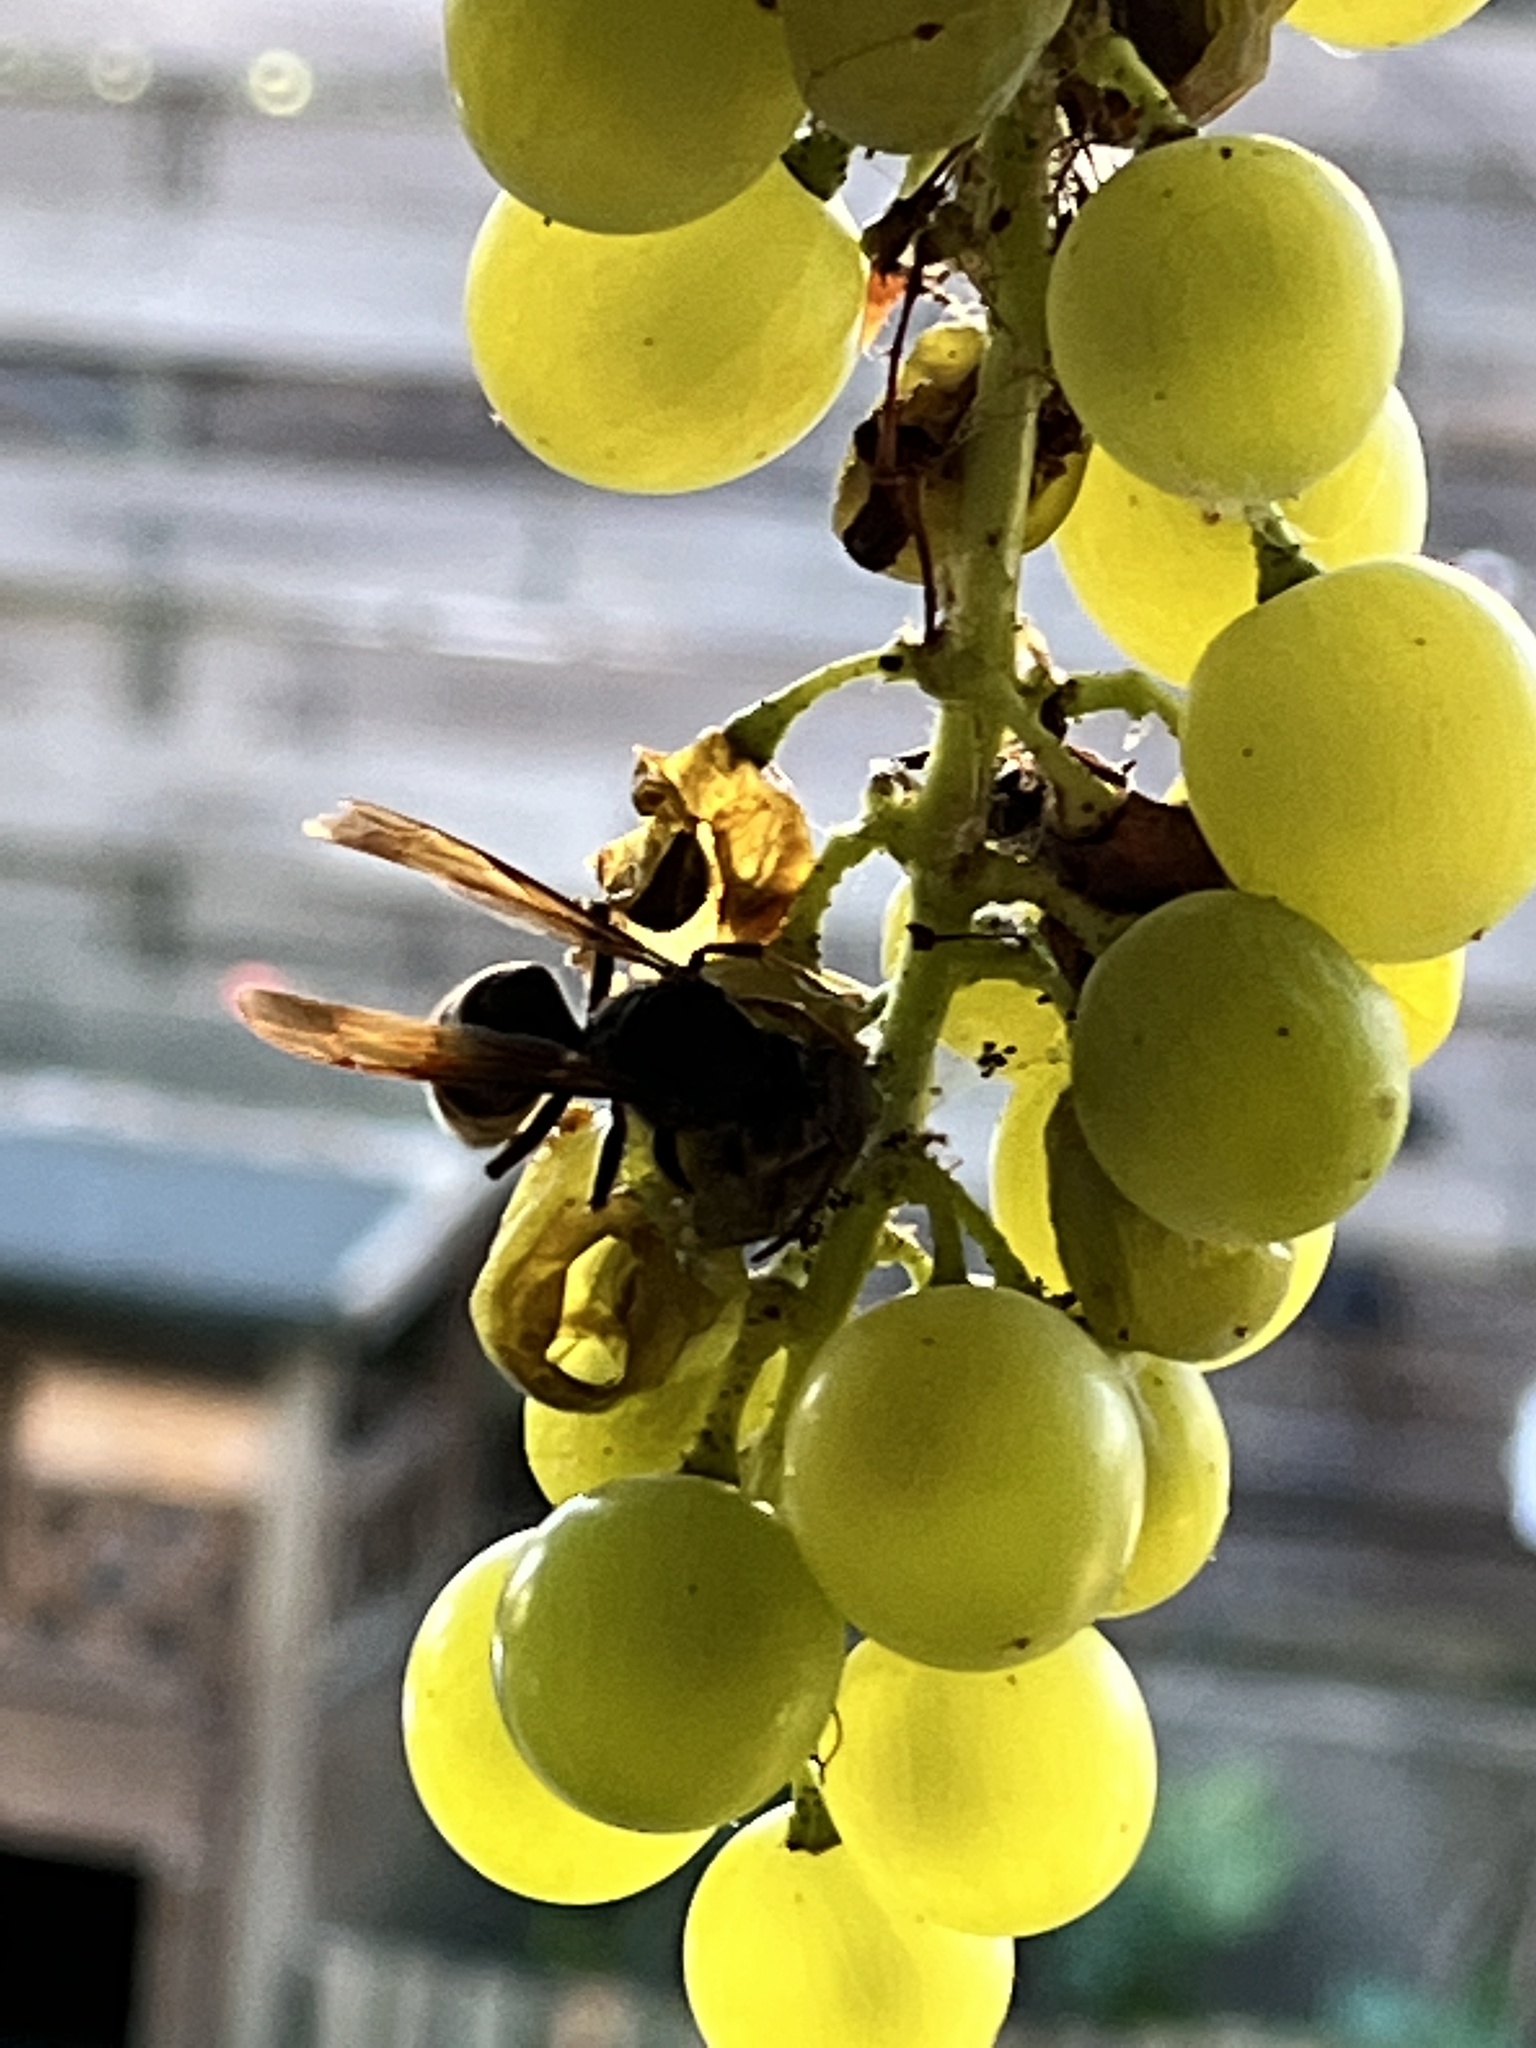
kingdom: Animalia
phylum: Arthropoda
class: Insecta
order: Hymenoptera
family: Vespidae
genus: Vespa
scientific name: Vespa velutina
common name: Asian hornet
